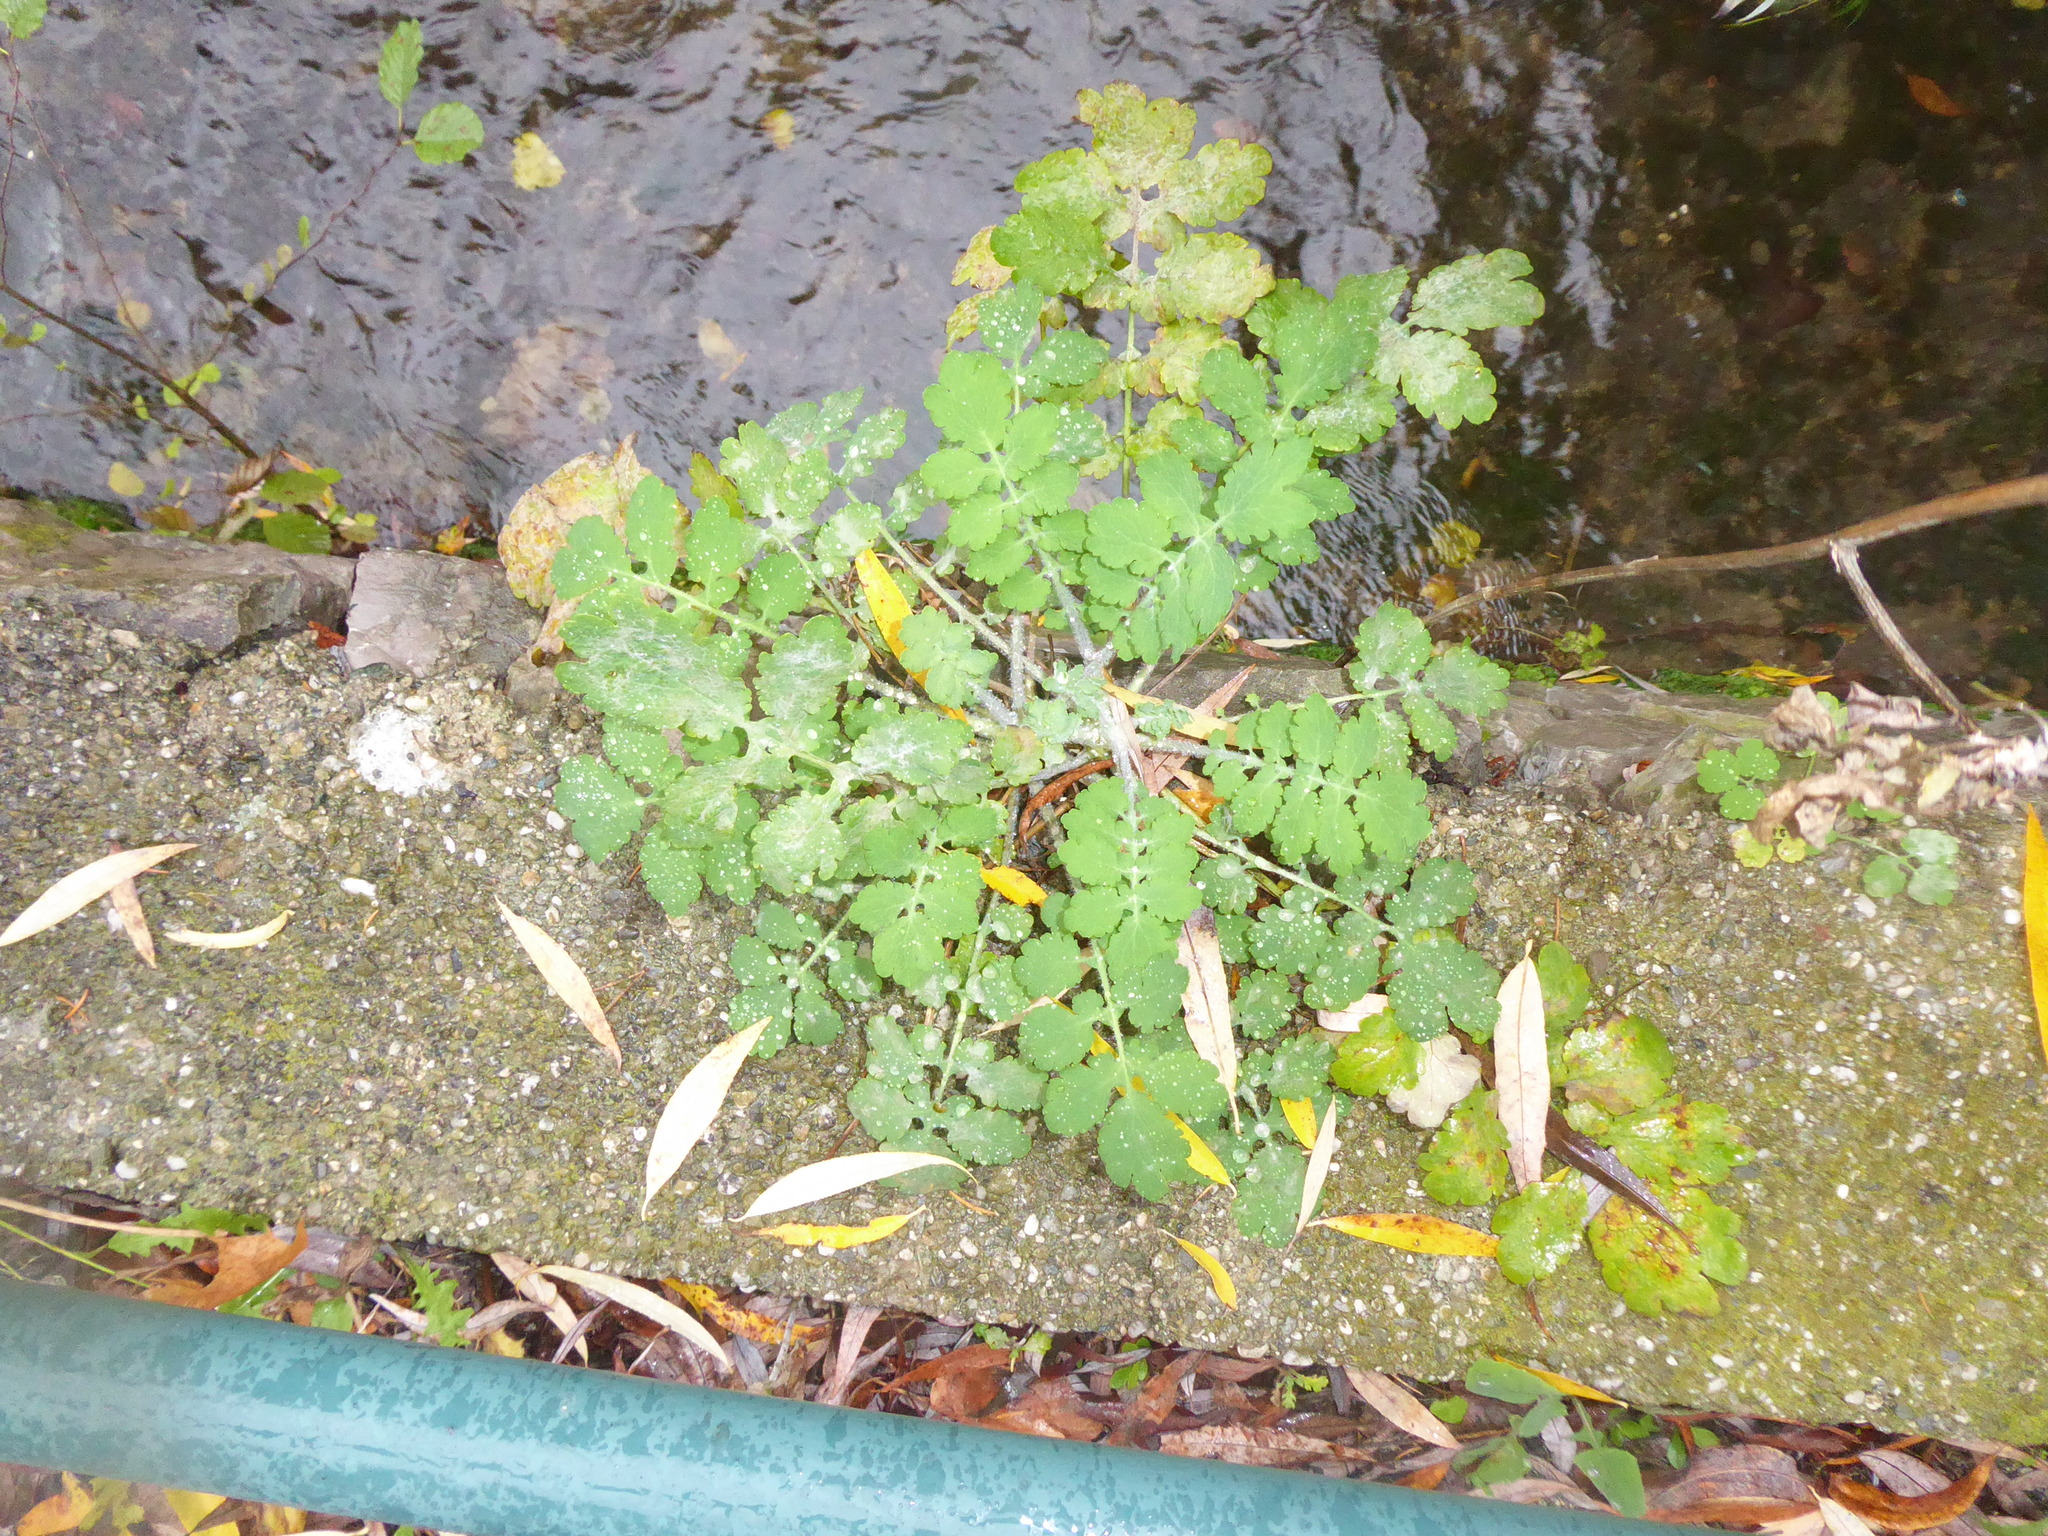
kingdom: Plantae
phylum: Tracheophyta
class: Magnoliopsida
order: Ranunculales
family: Papaveraceae
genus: Chelidonium
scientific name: Chelidonium majus
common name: Greater celandine
